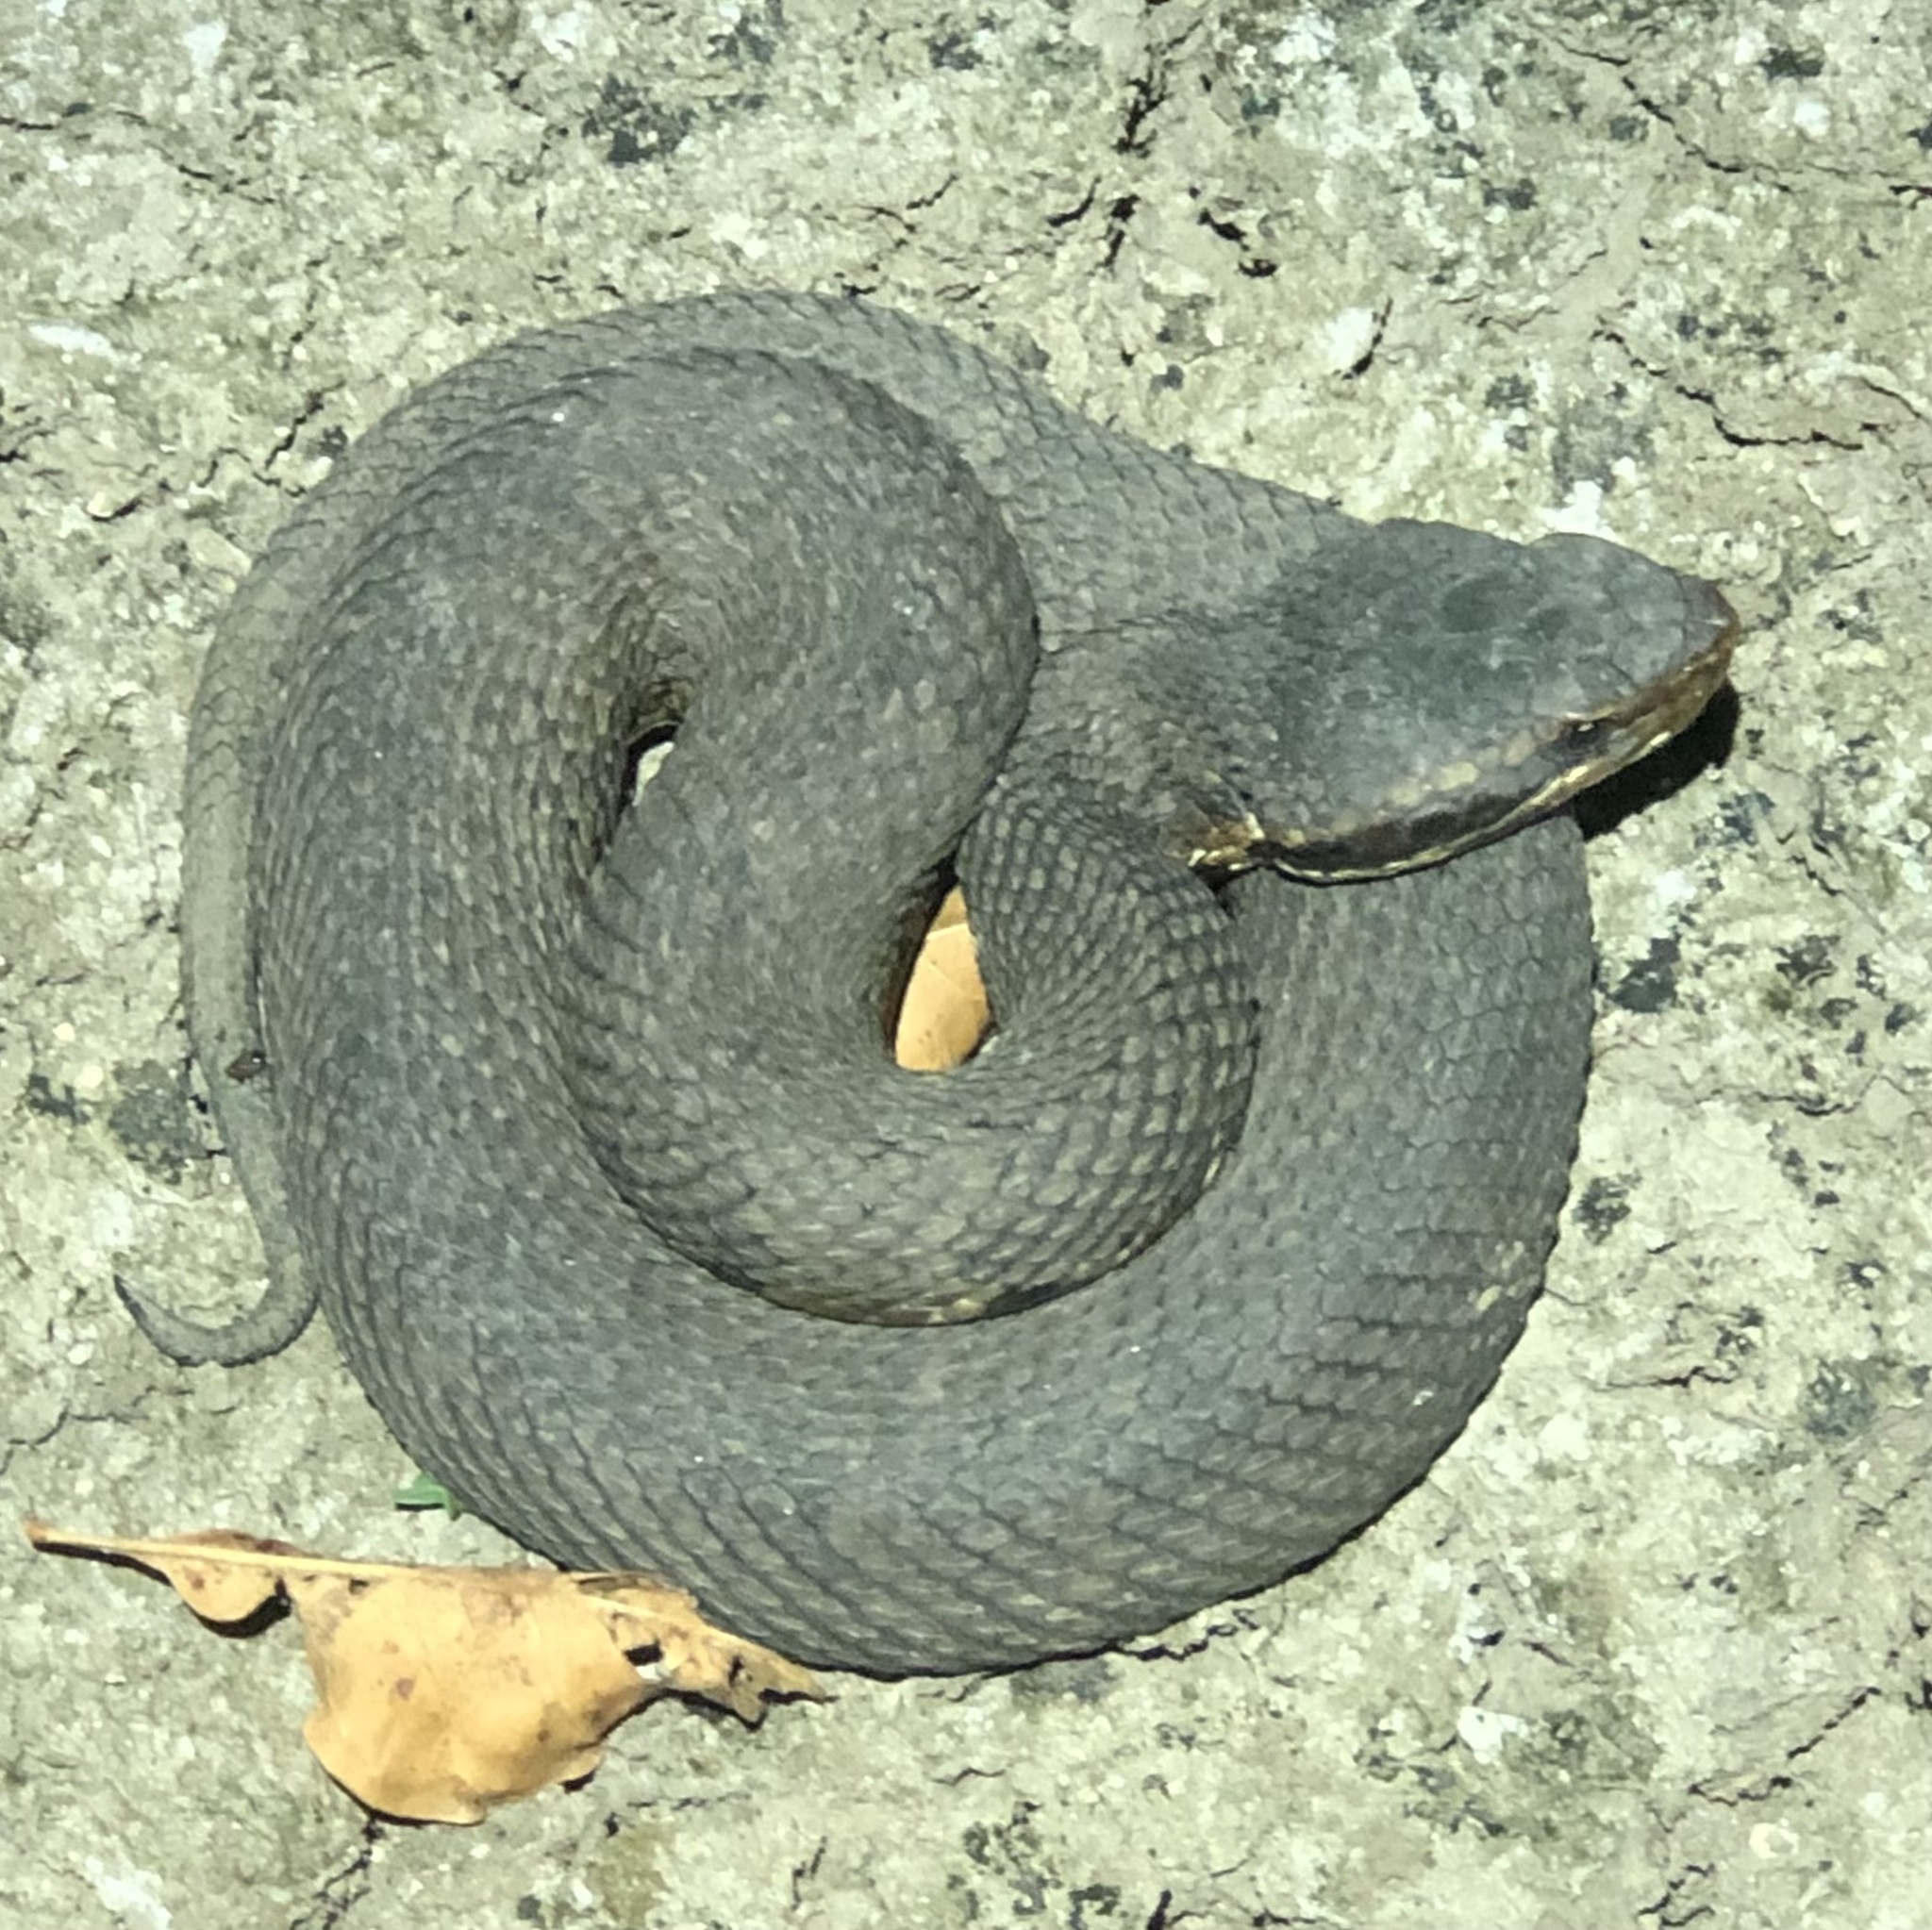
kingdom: Animalia
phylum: Chordata
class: Squamata
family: Viperidae
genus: Agkistrodon
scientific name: Agkistrodon piscivorus
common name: Cottonmouth
